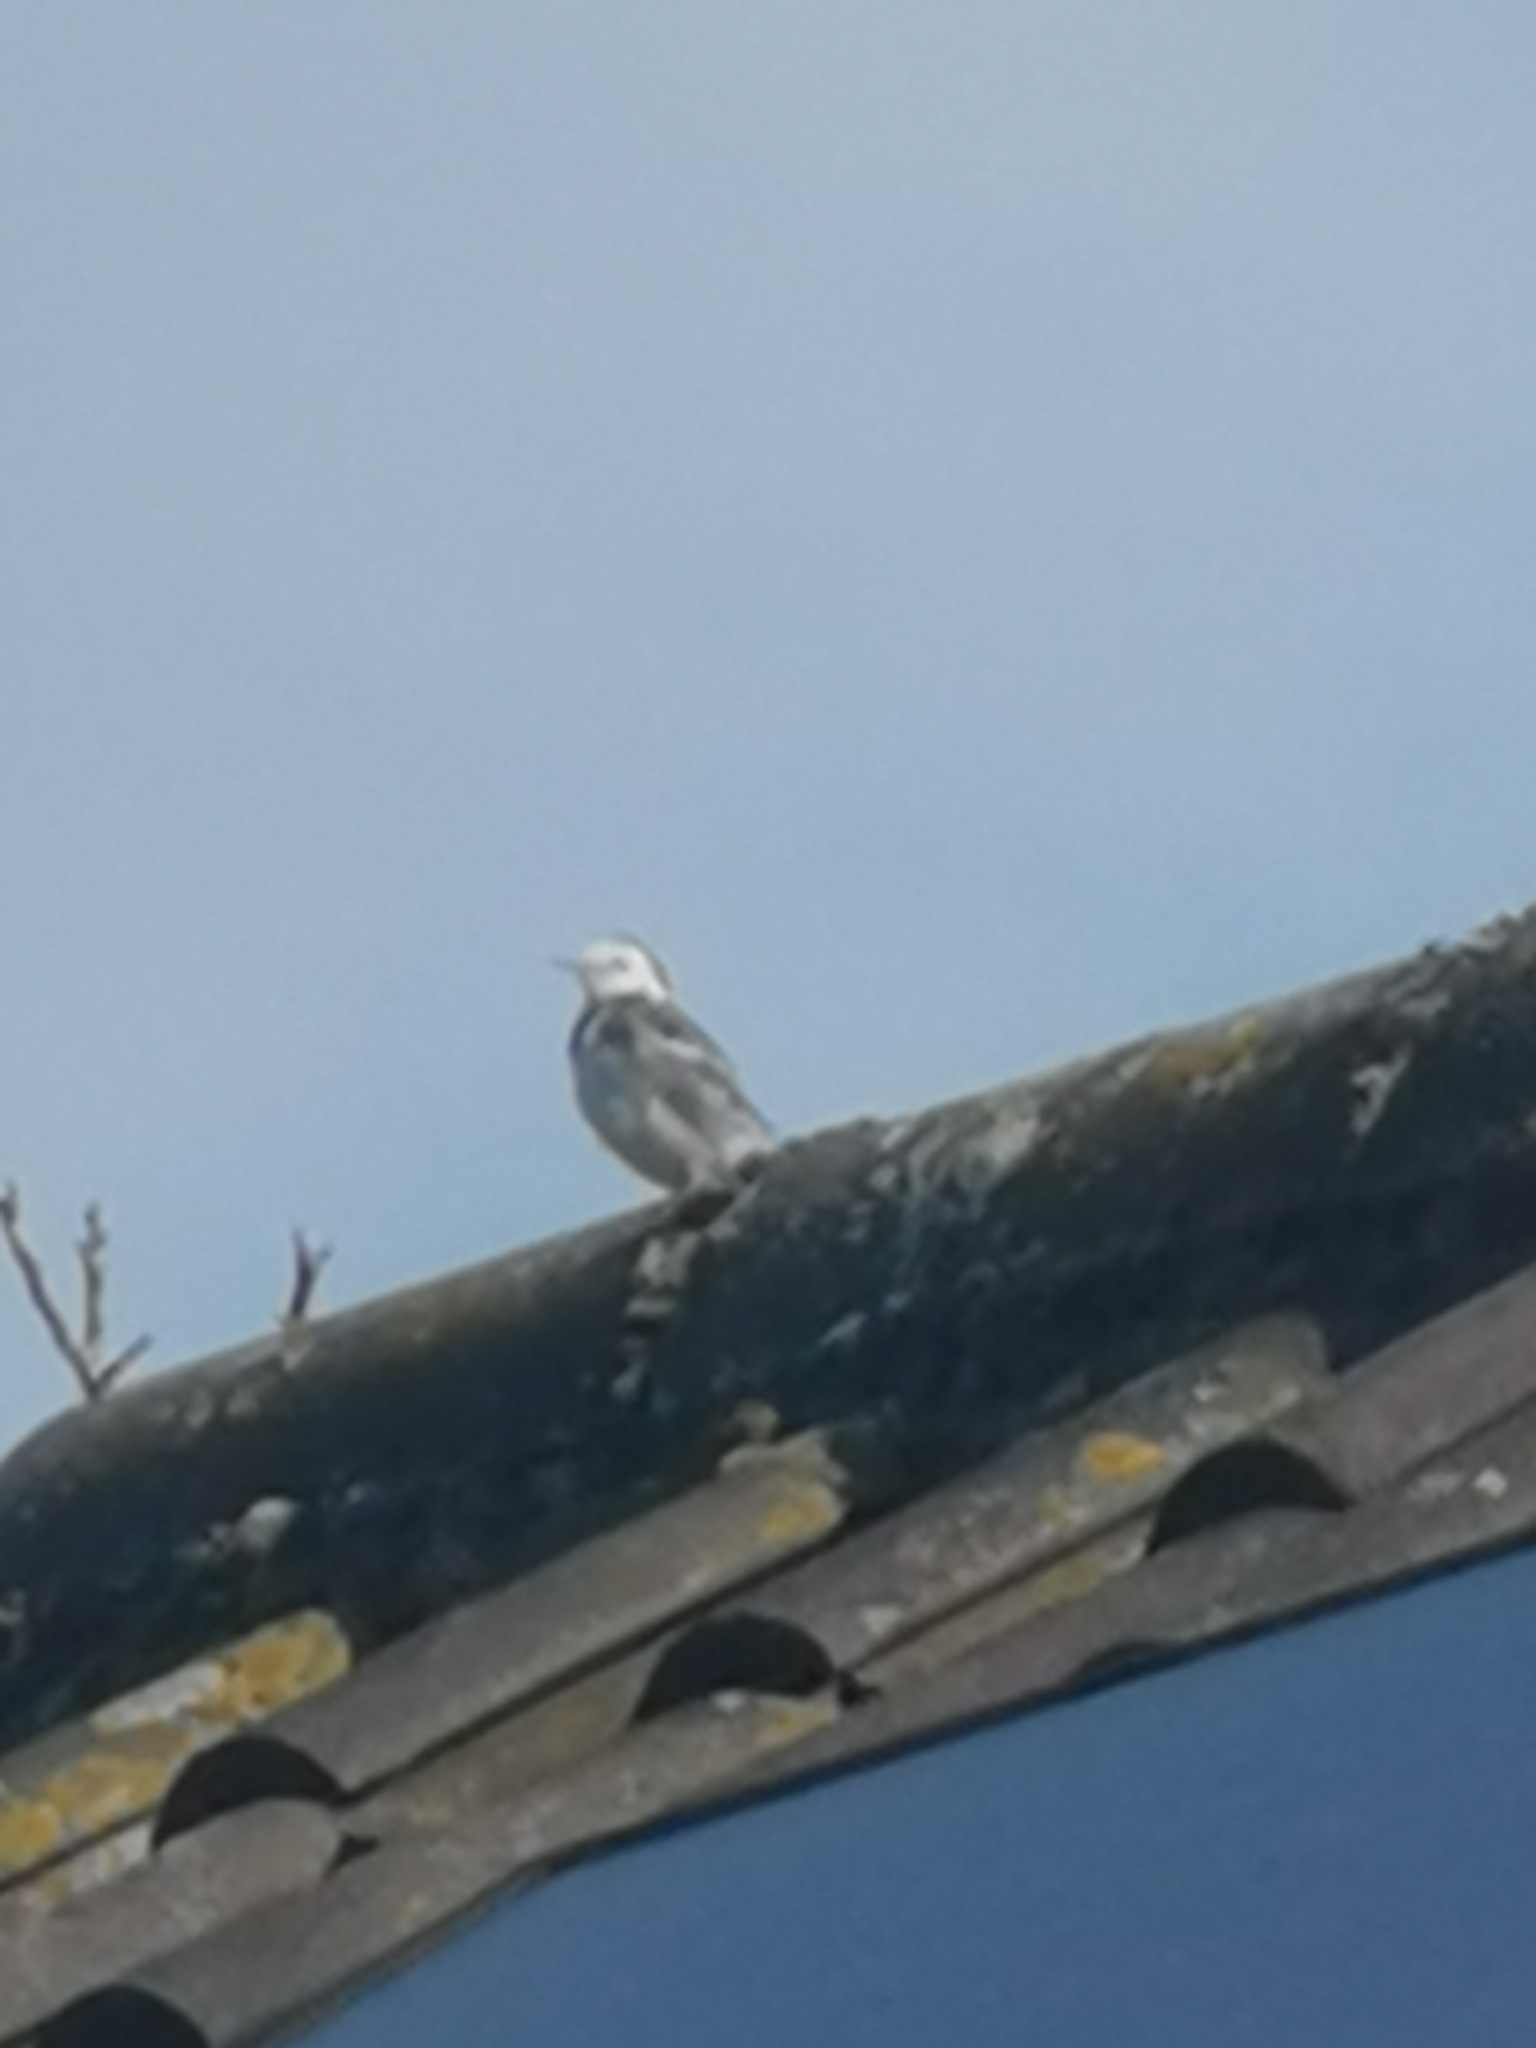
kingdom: Animalia
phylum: Chordata
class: Aves
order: Passeriformes
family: Motacillidae
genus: Motacilla
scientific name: Motacilla alba
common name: White wagtail
